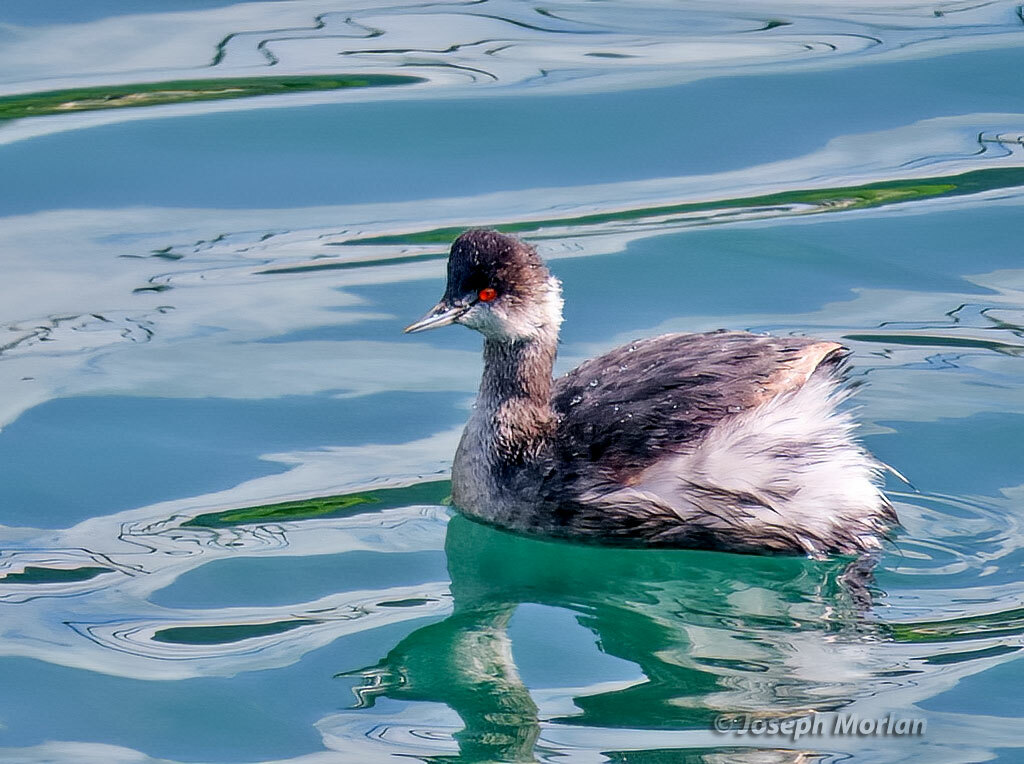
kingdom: Animalia
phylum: Chordata
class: Aves
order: Podicipediformes
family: Podicipedidae
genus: Podiceps
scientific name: Podiceps nigricollis
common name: Black-necked grebe
